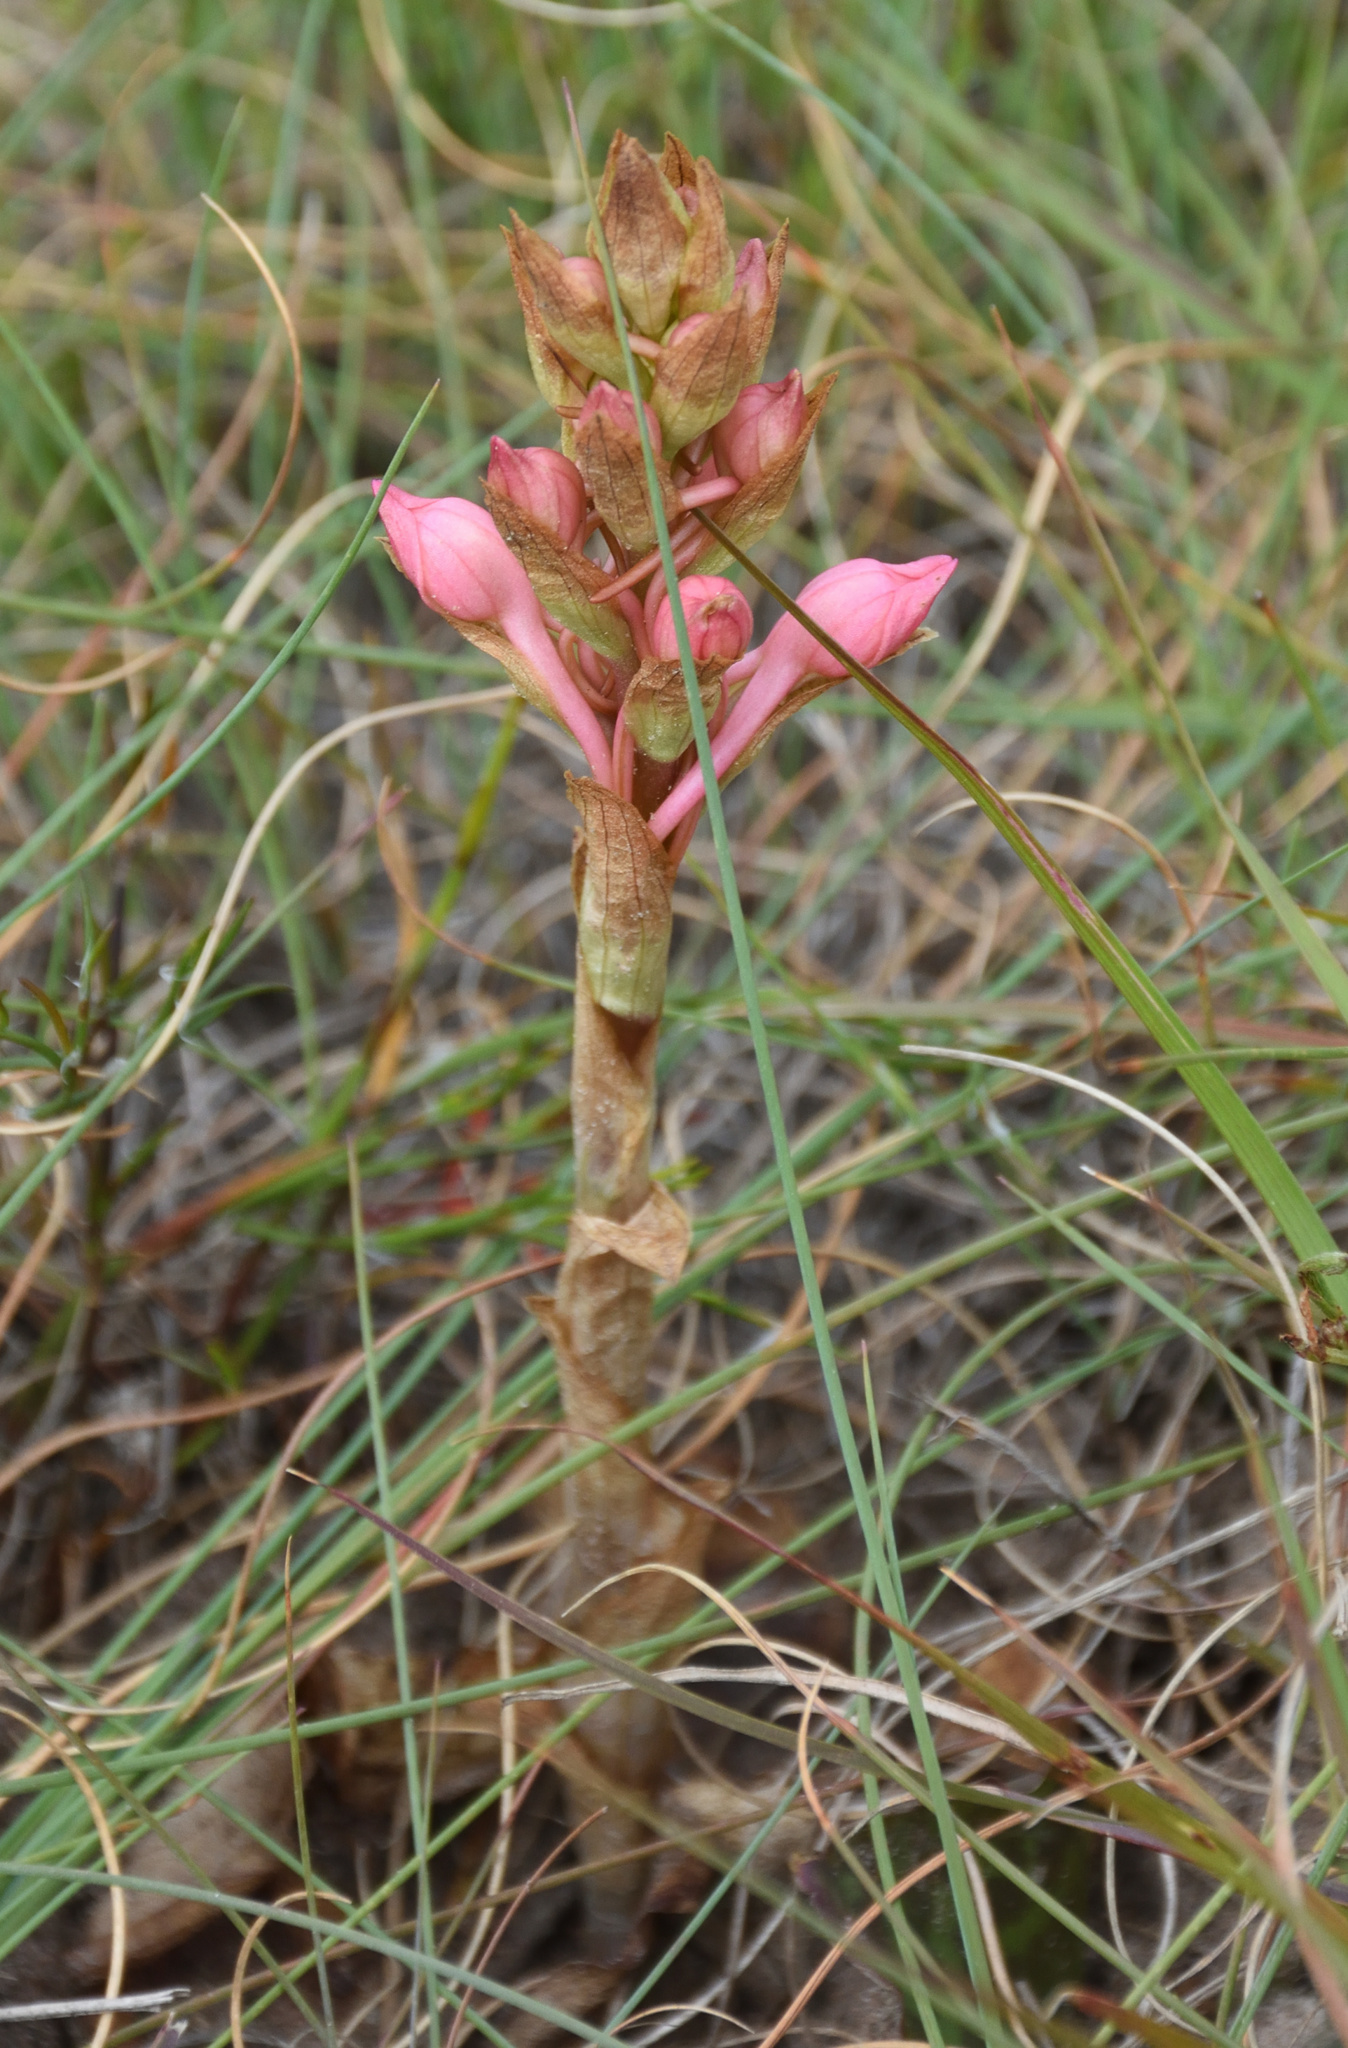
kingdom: Plantae
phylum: Tracheophyta
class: Liliopsida
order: Asparagales
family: Orchidaceae
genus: Satyrium
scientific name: Satyrium membranaceum
